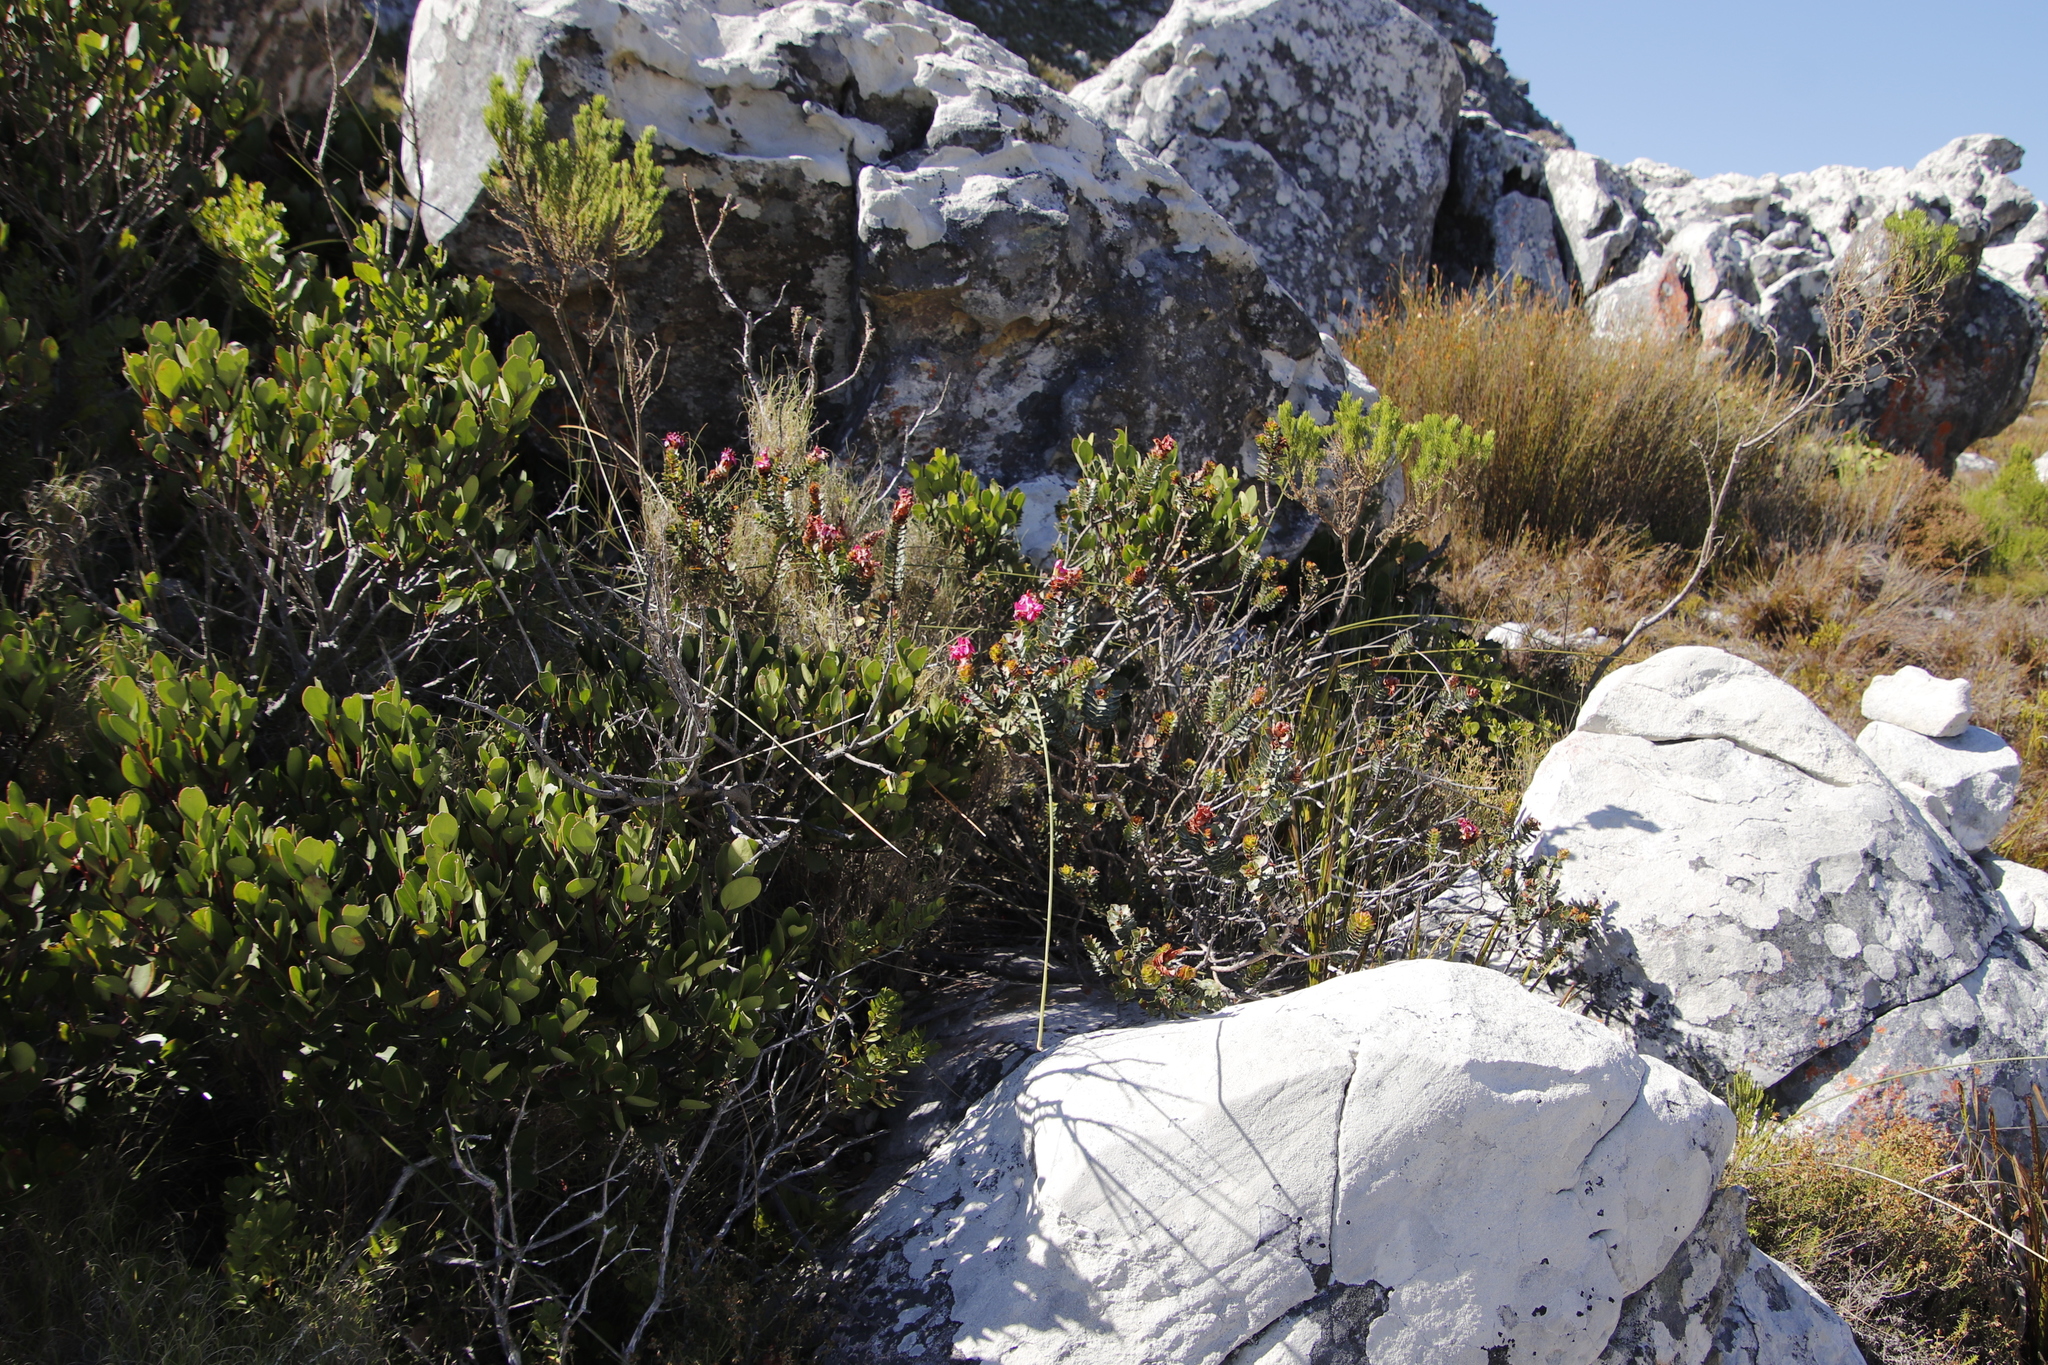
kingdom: Plantae
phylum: Tracheophyta
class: Magnoliopsida
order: Myrtales
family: Penaeaceae
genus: Saltera
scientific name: Saltera sarcocolla
